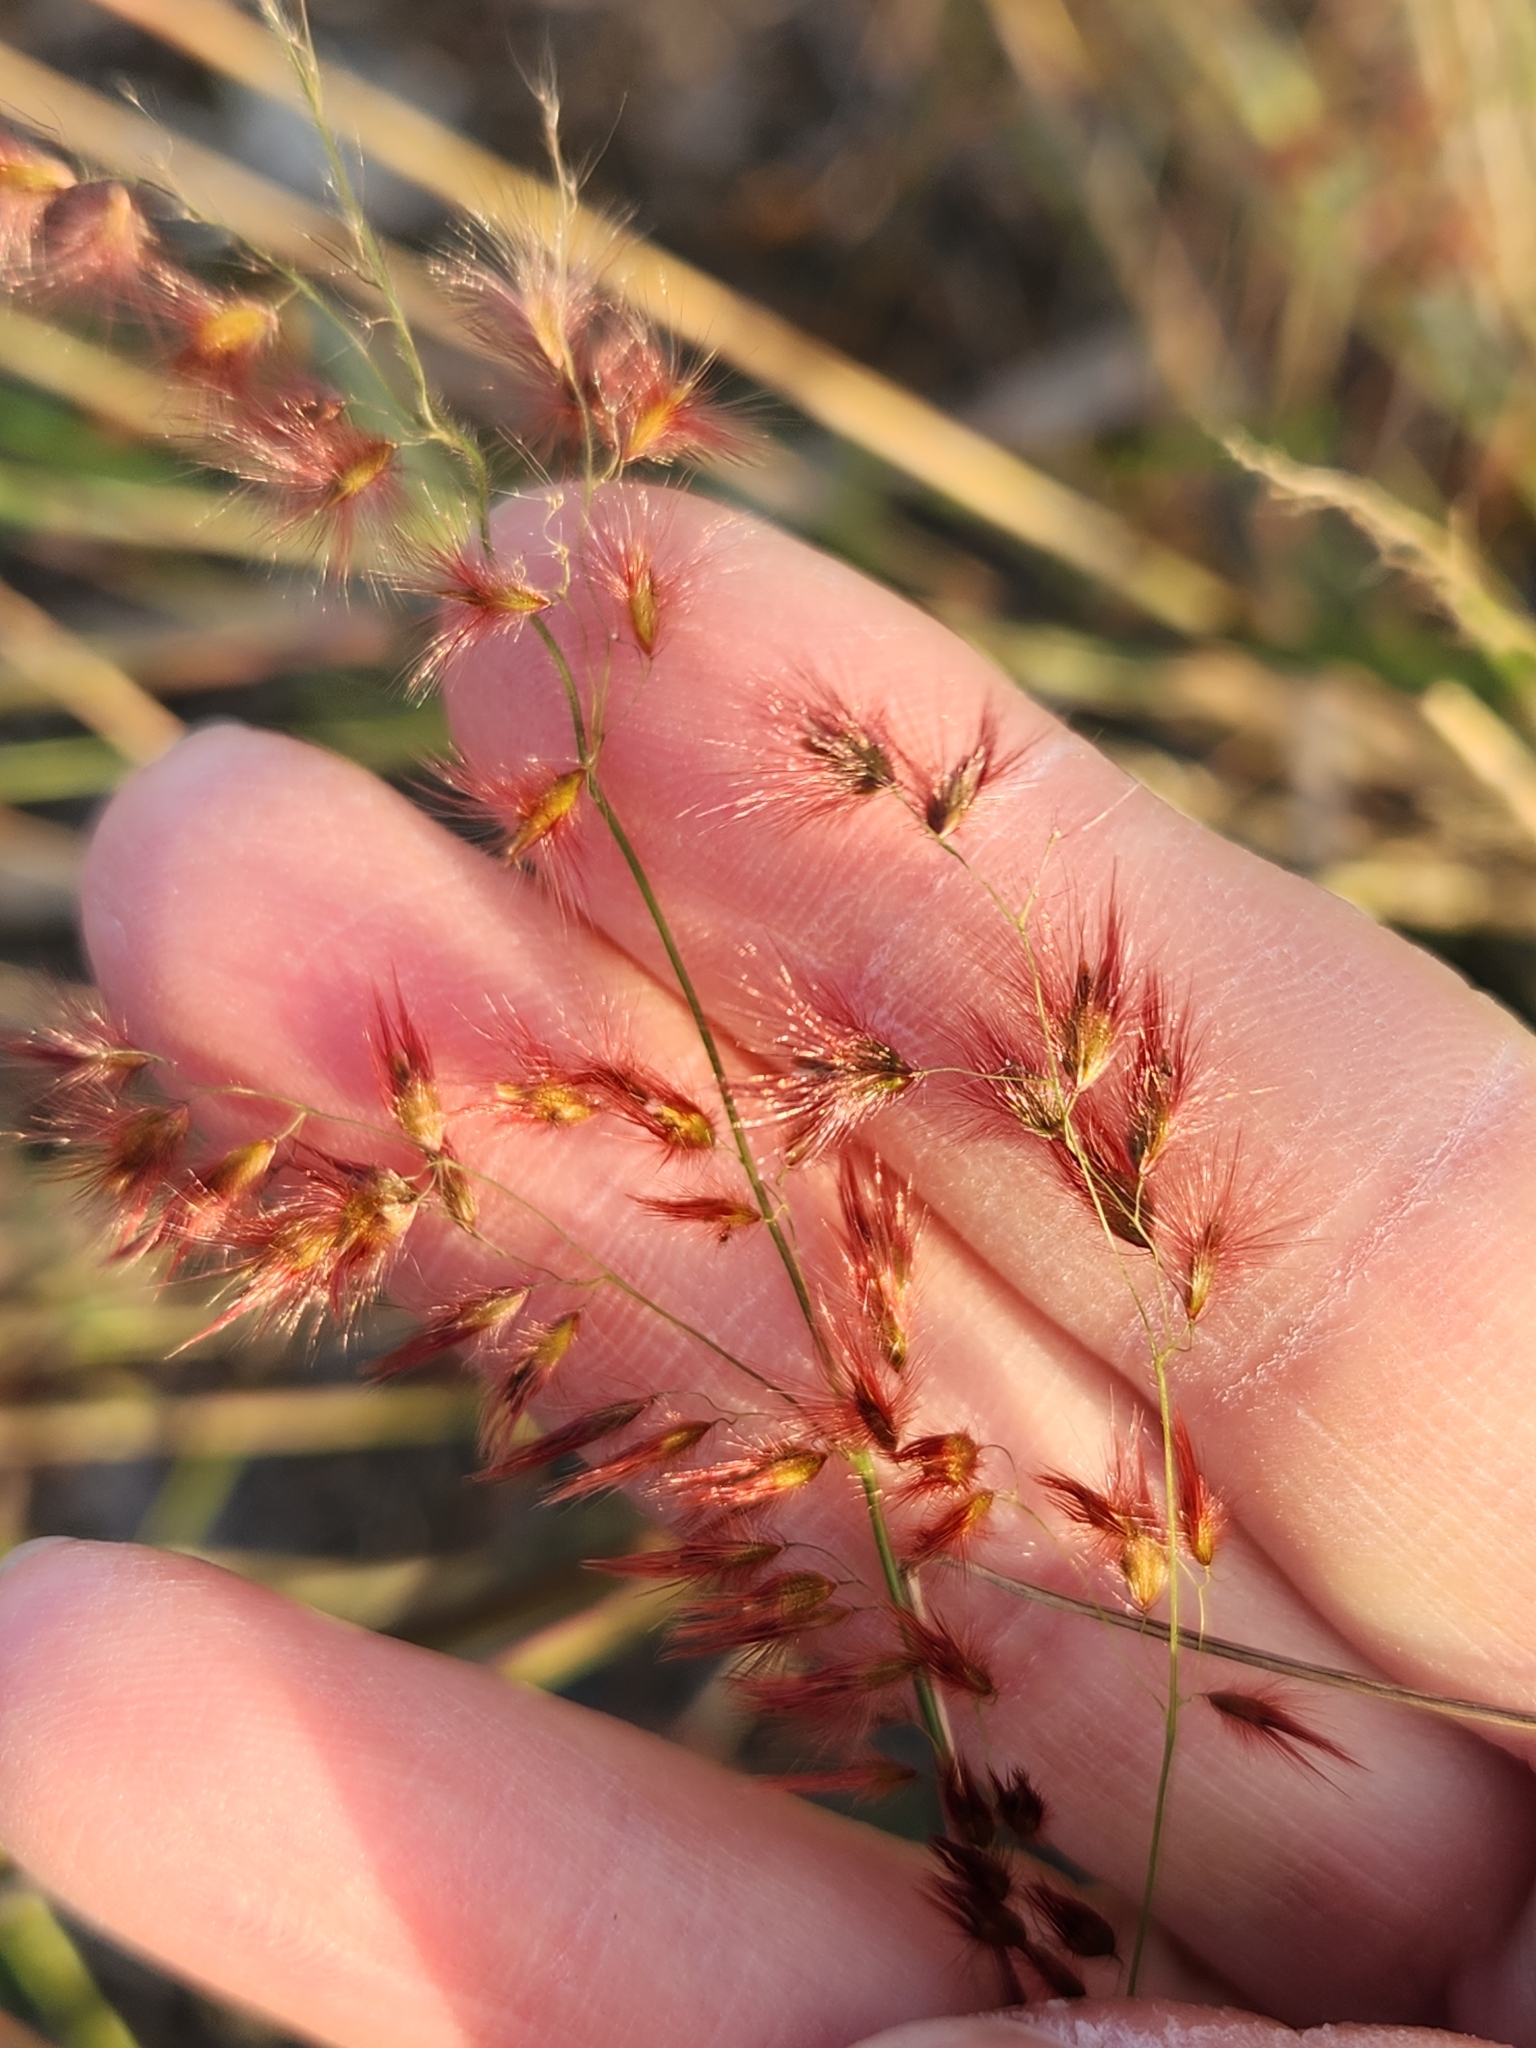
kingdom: Plantae
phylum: Tracheophyta
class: Liliopsida
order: Poales
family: Poaceae
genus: Melinis
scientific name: Melinis repens
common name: Rose natal grass
